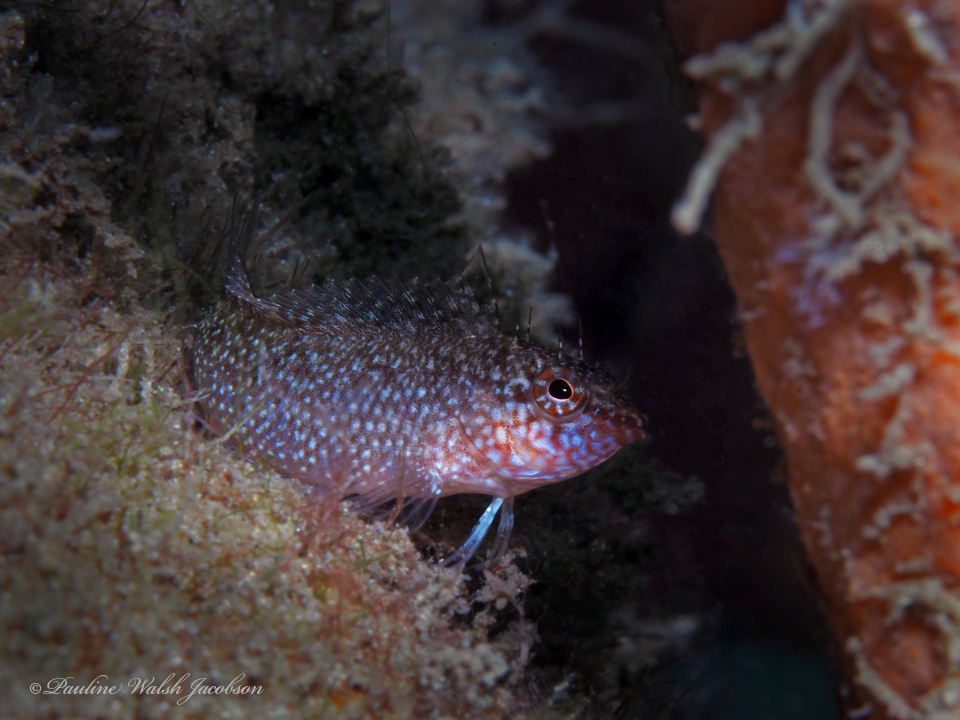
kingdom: Animalia
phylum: Chordata
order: Perciformes
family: Labrisomidae
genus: Malacoctenus
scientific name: Malacoctenus macropus
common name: Rosy blenny
